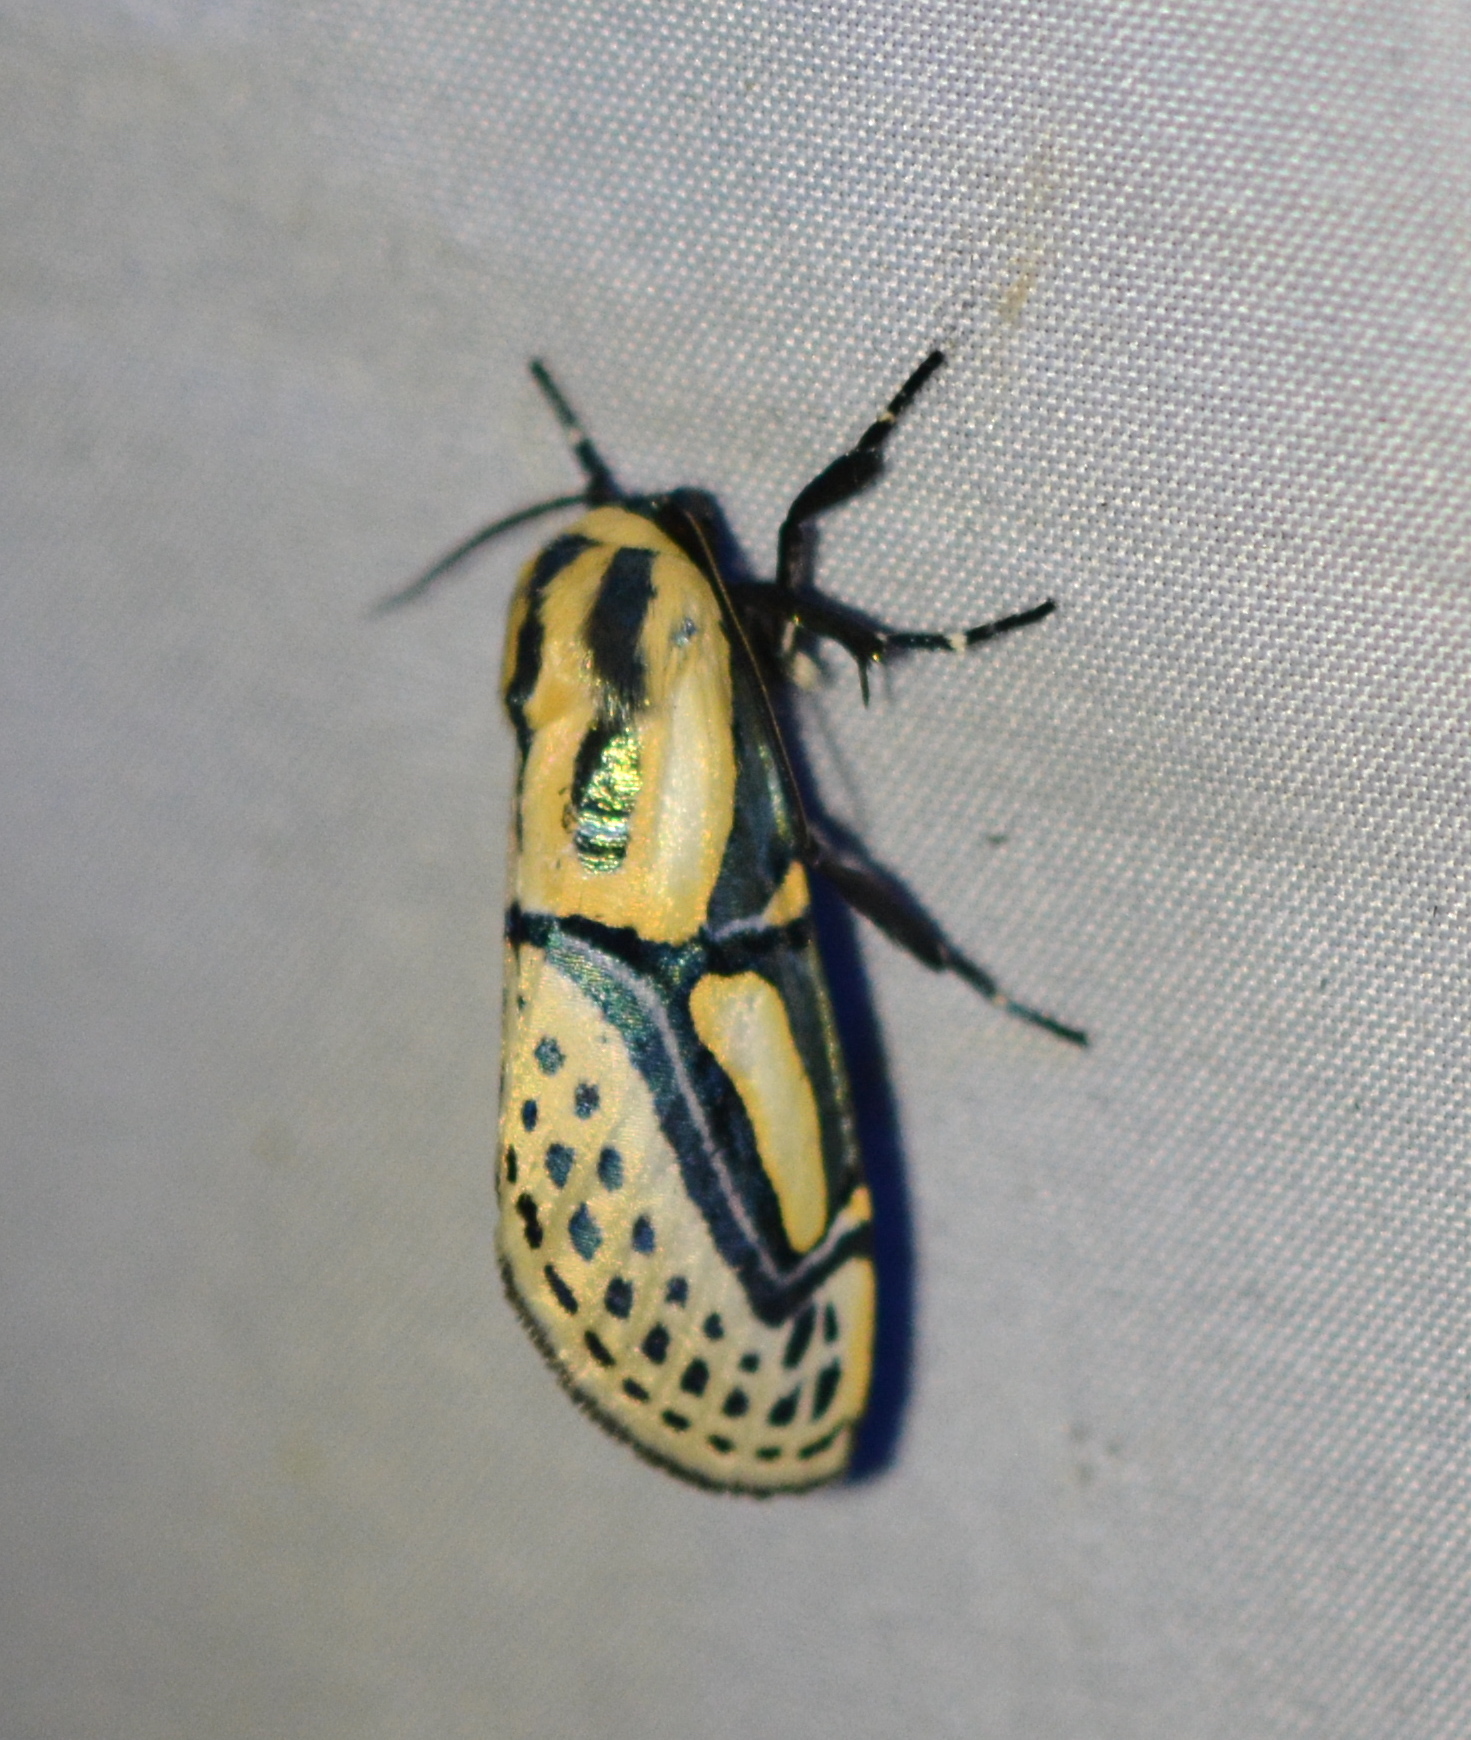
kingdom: Animalia
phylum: Arthropoda
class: Insecta
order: Lepidoptera
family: Erebidae
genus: Diphthera
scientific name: Diphthera festiva
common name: Hieroglyphic moth
